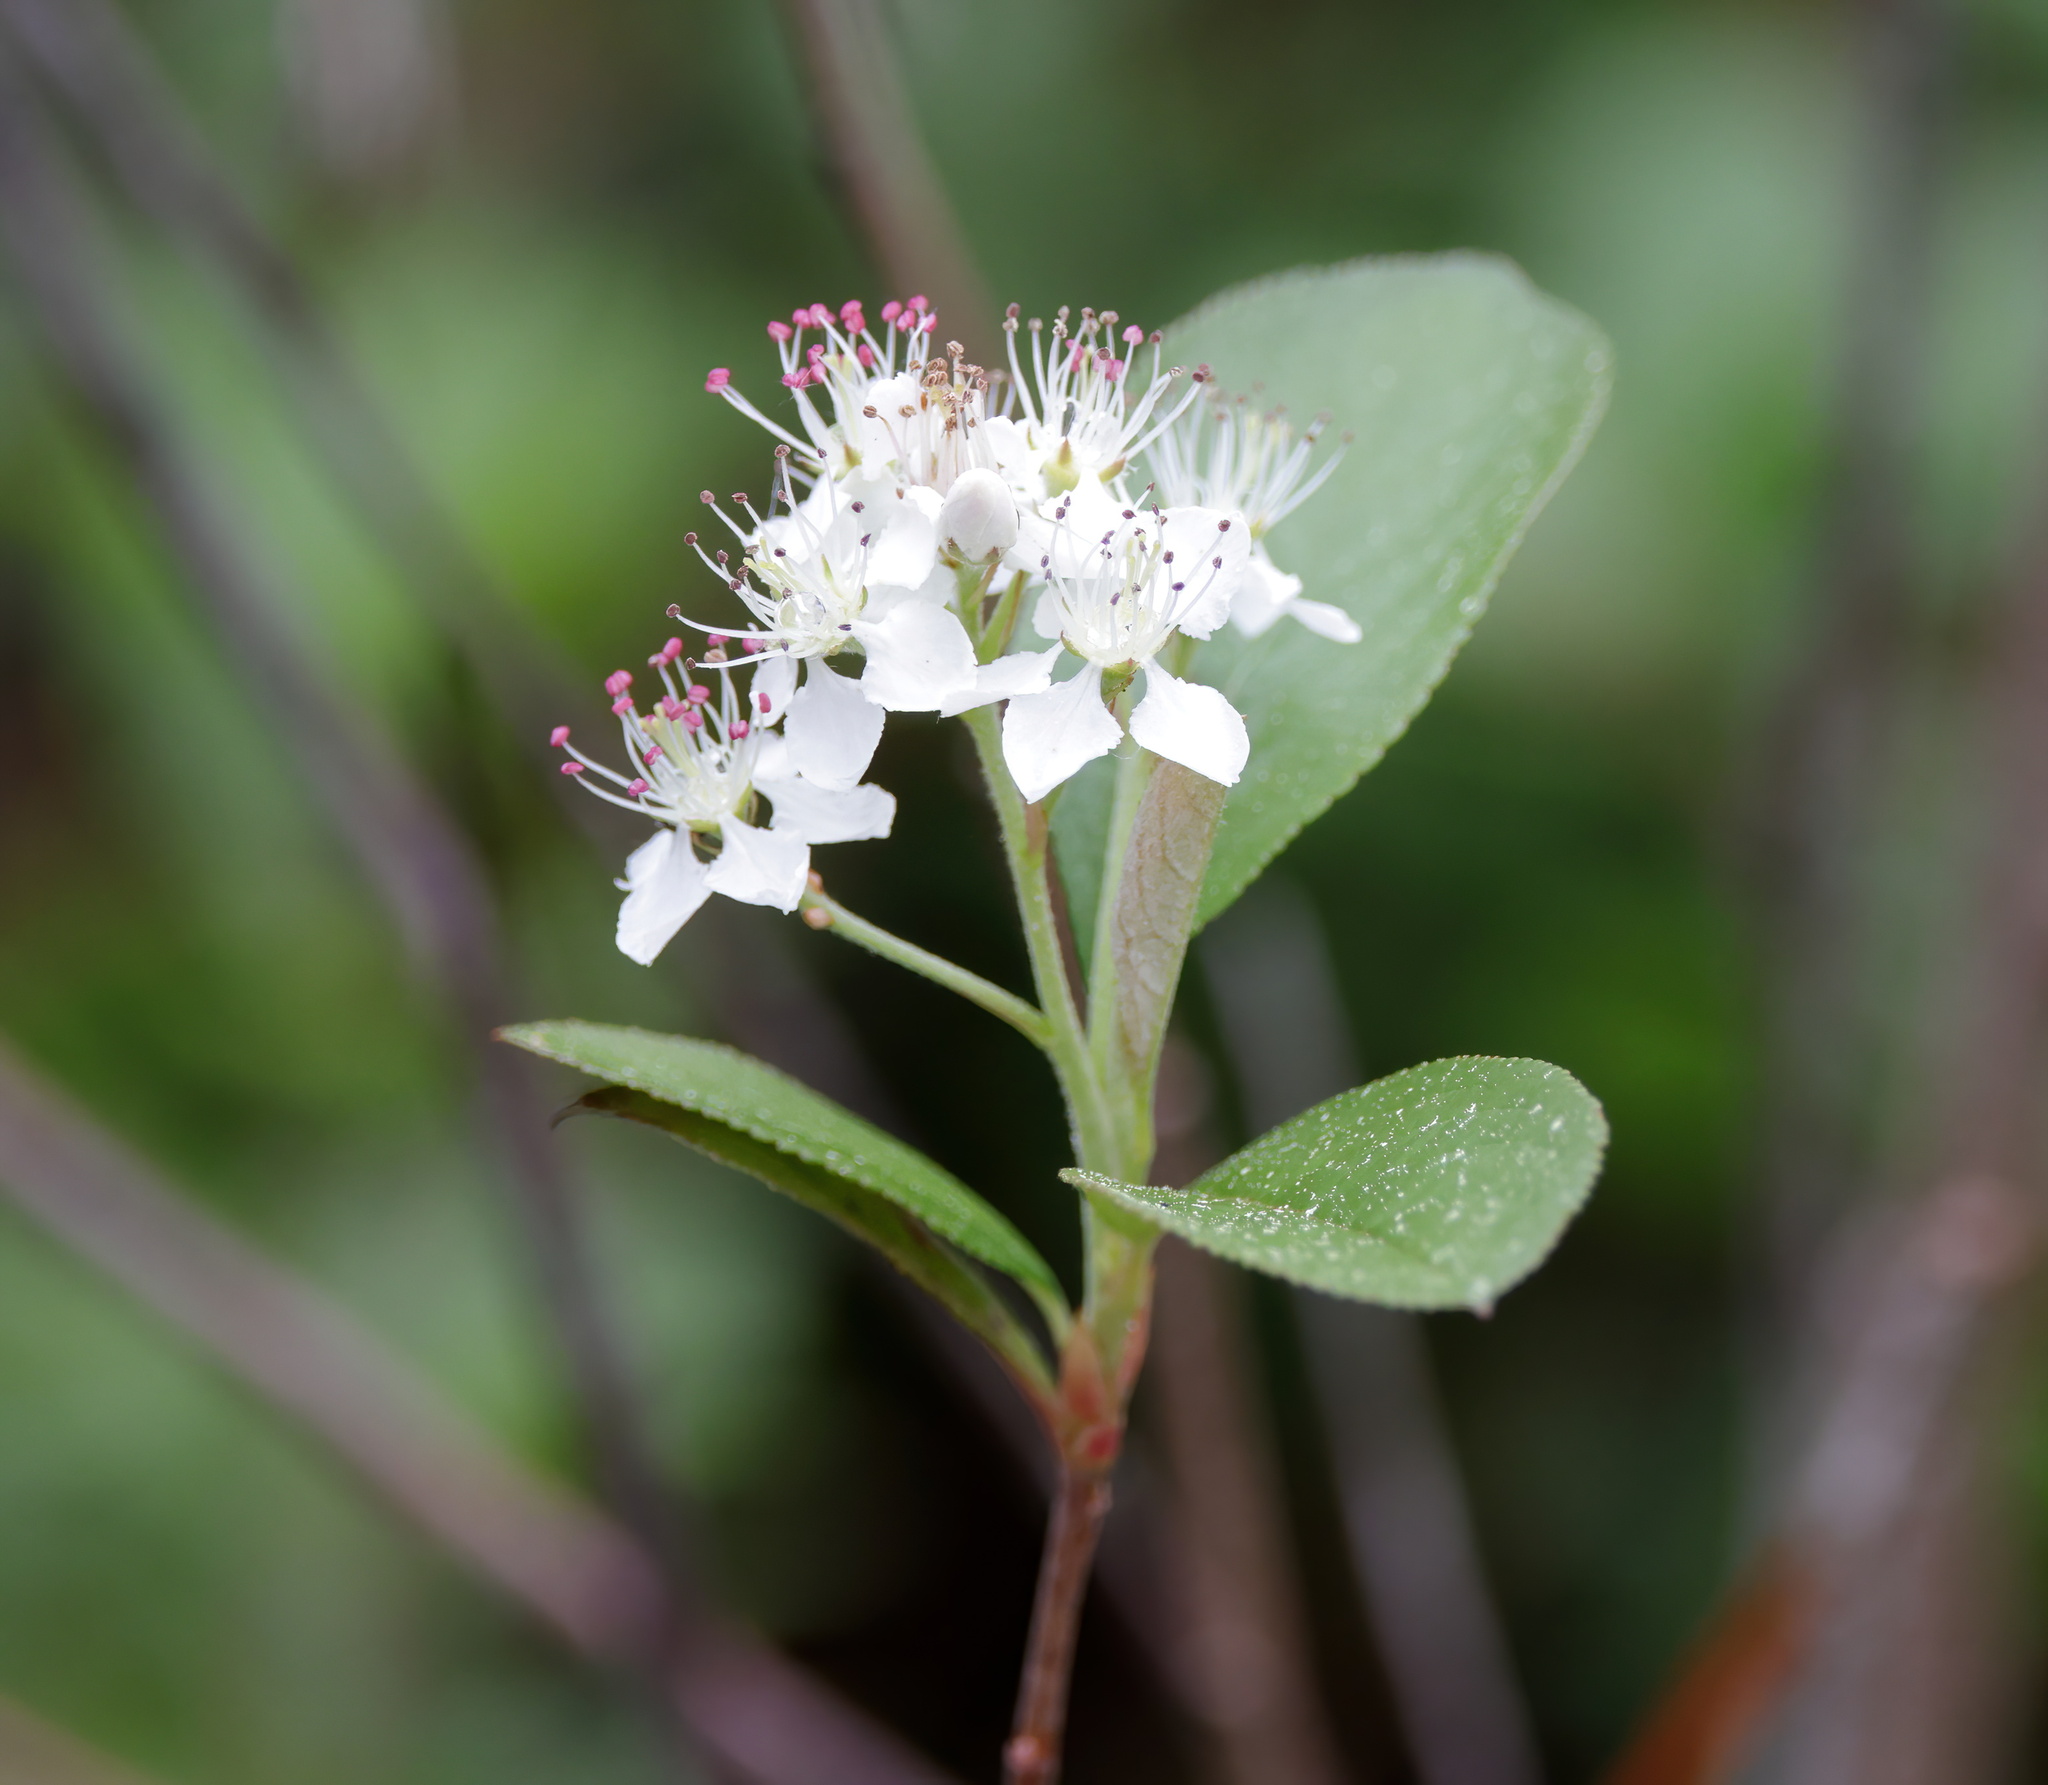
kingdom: Plantae
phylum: Tracheophyta
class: Magnoliopsida
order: Rosales
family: Rosaceae
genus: Aronia
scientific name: Aronia arbutifolia
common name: Red chokeberry
